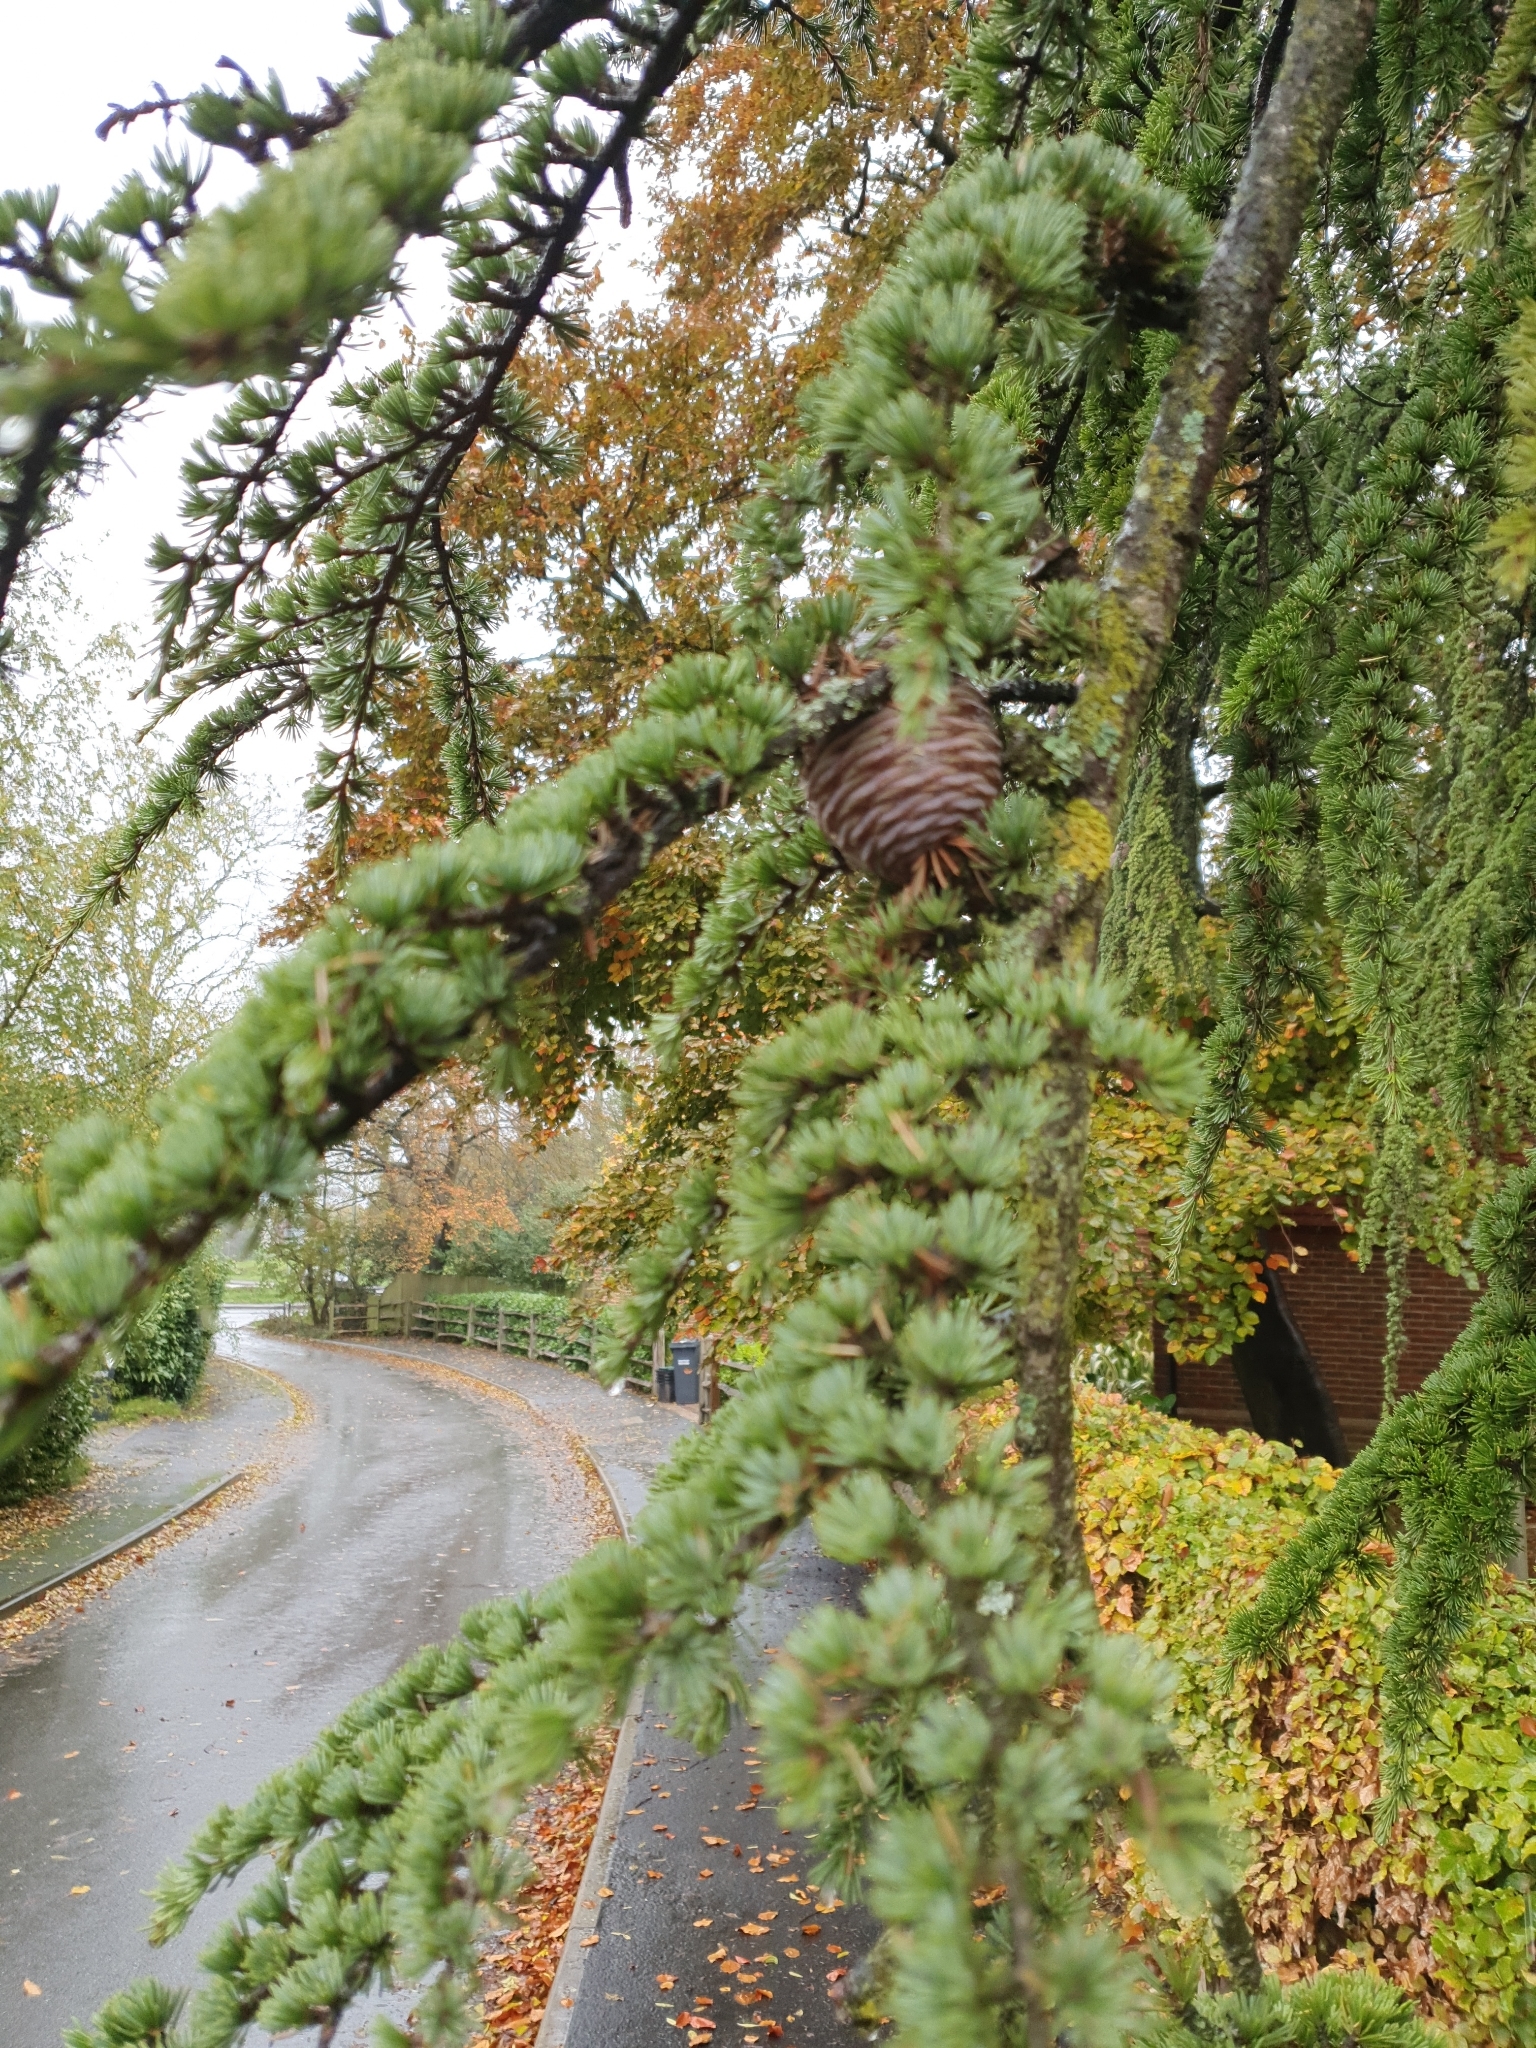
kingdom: Plantae
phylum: Tracheophyta
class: Pinopsida
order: Pinales
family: Pinaceae
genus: Cedrus
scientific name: Cedrus atlantica
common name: Atlas cedar
